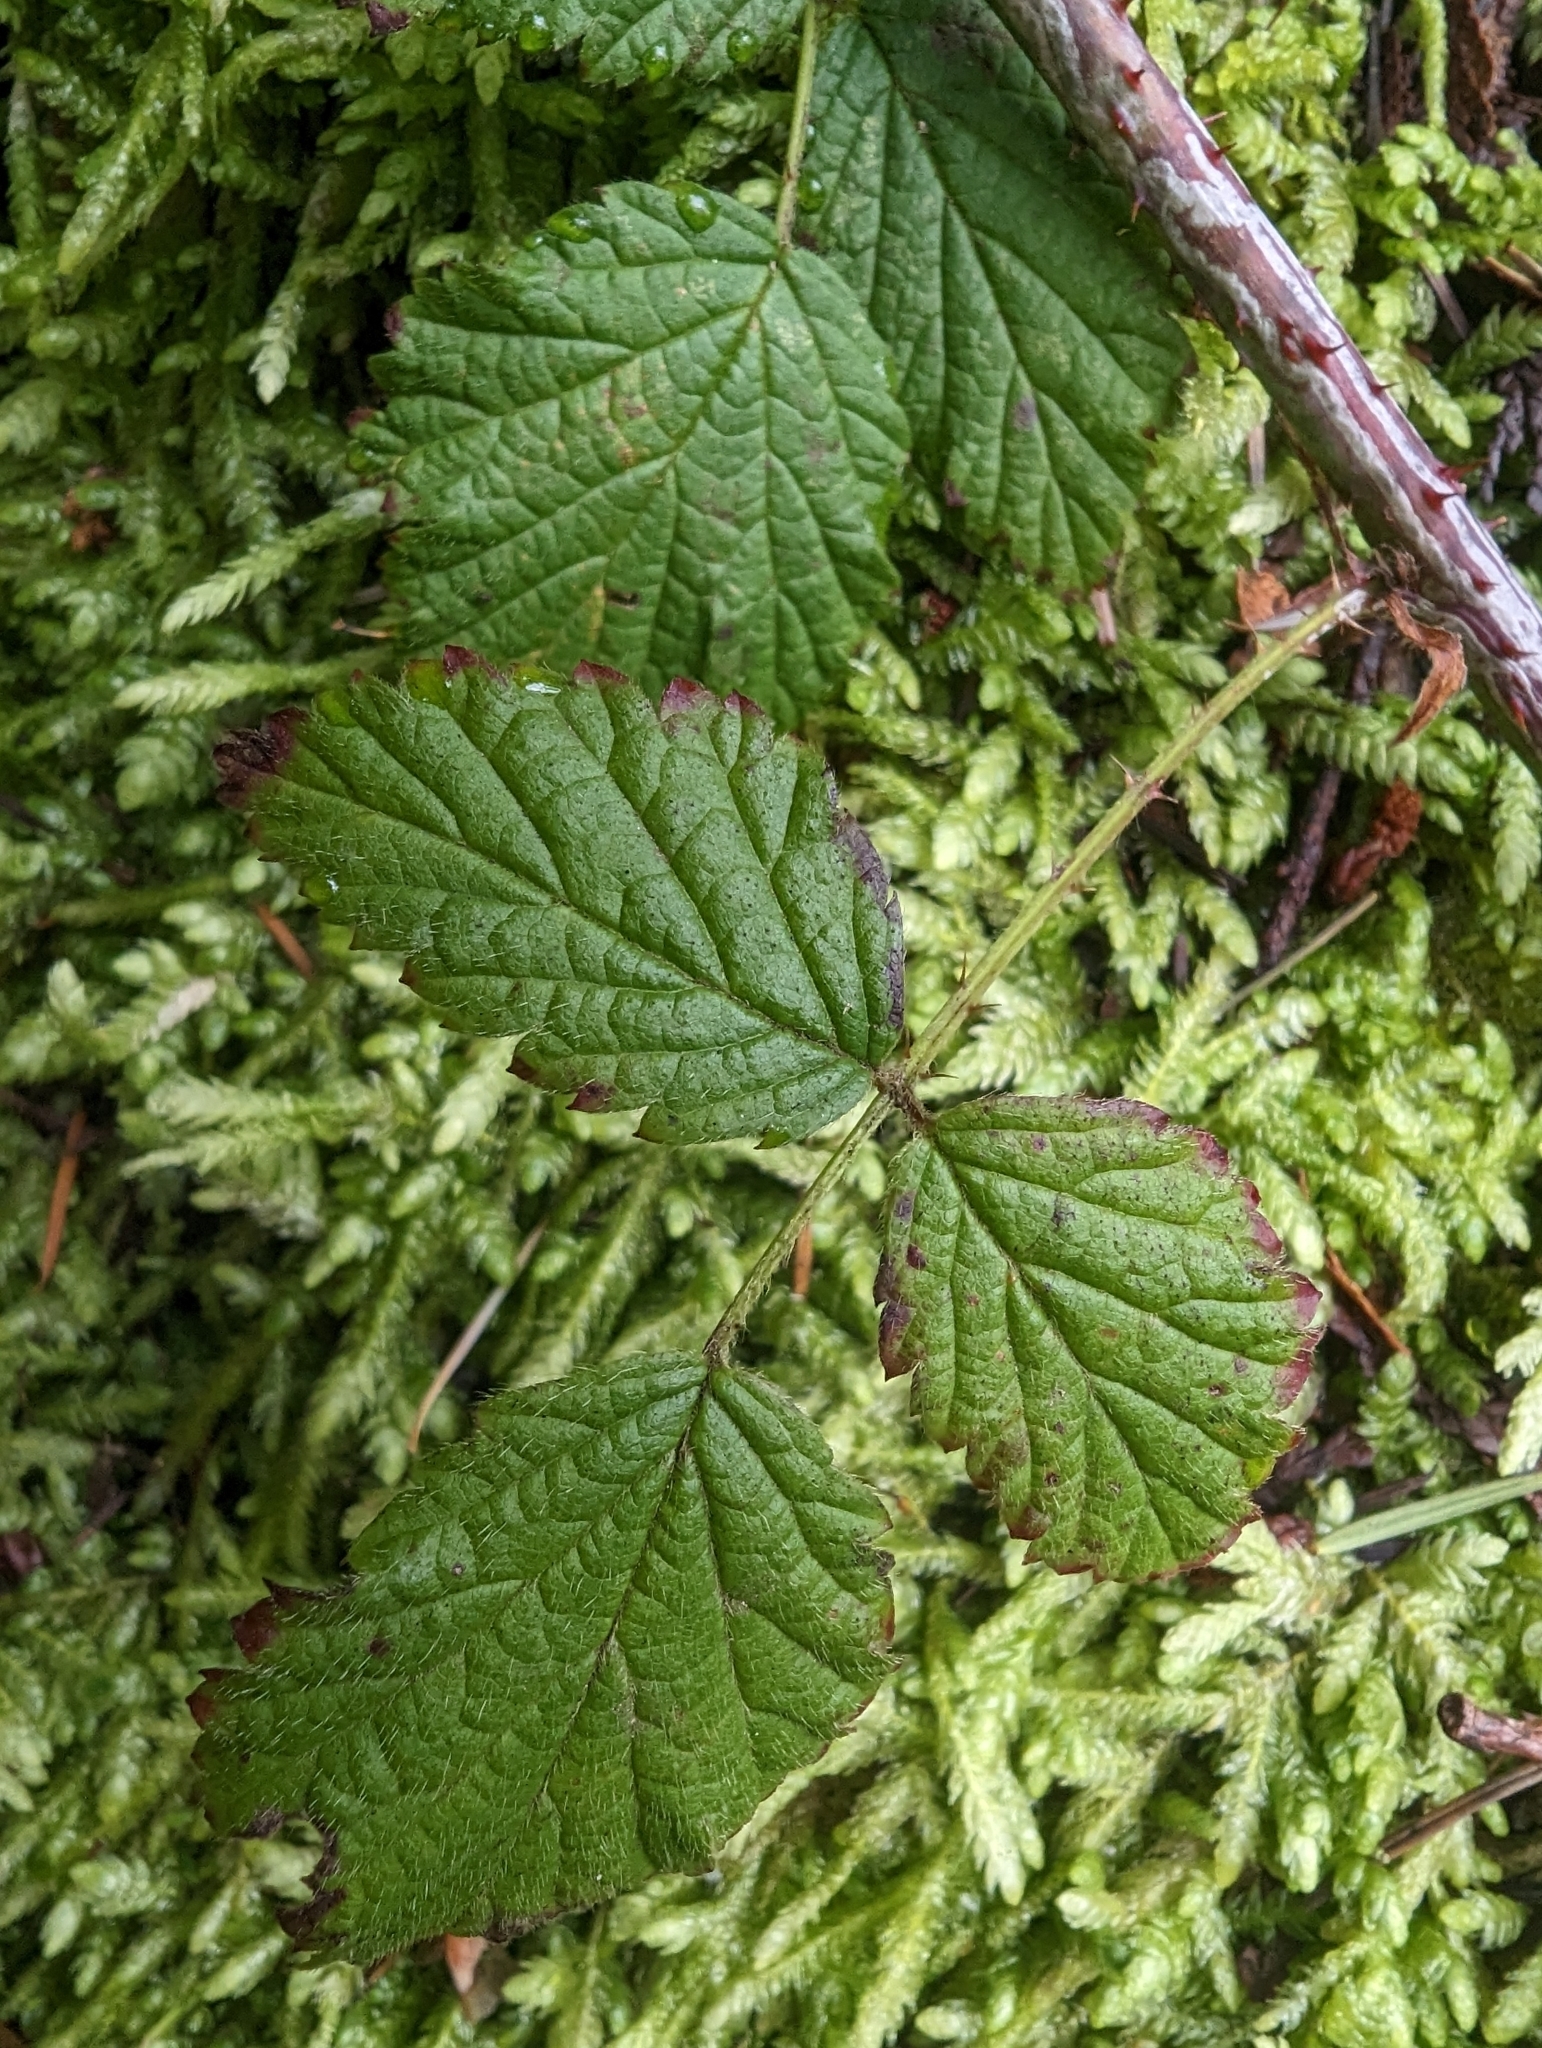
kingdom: Plantae
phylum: Tracheophyta
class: Magnoliopsida
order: Rosales
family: Rosaceae
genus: Rubus
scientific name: Rubus ursinus
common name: Pacific blackberry
